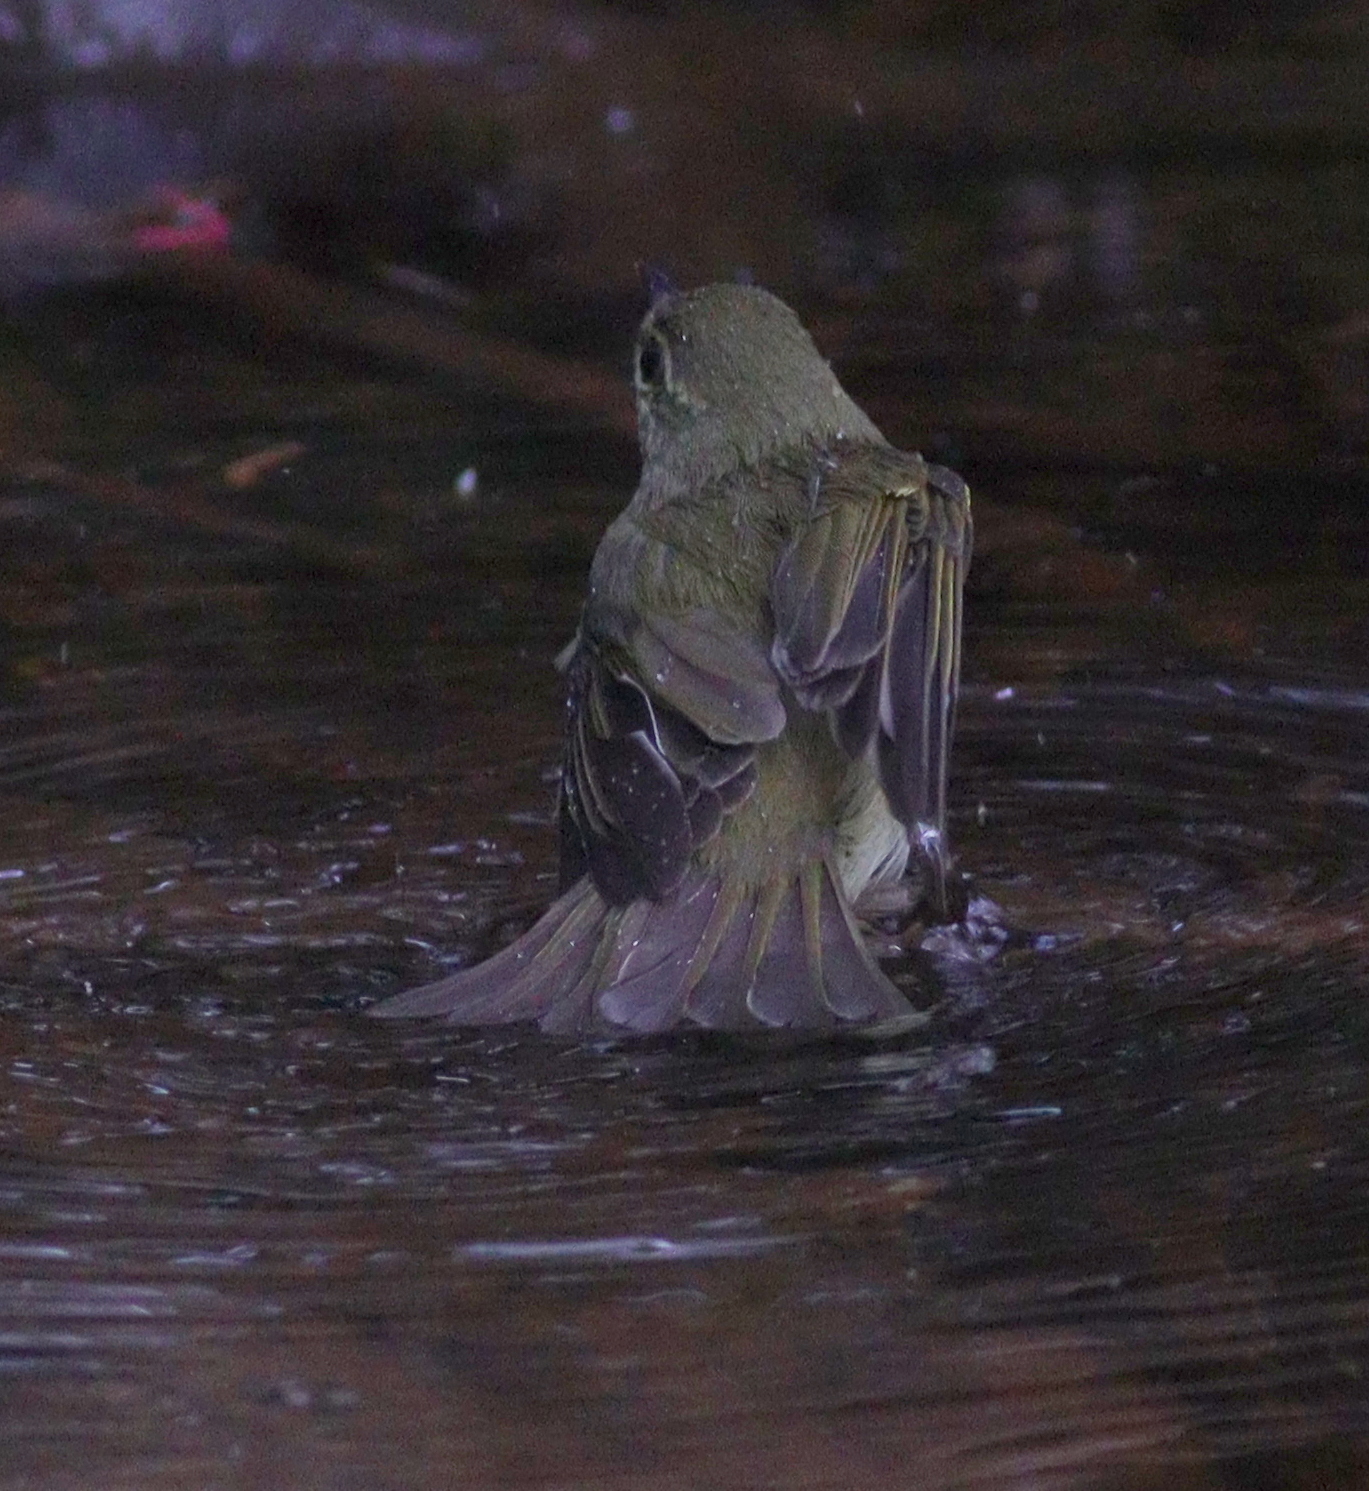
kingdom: Animalia
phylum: Chordata
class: Aves
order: Passeriformes
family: Phylloscopidae
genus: Phylloscopus
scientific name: Phylloscopus xanthodryas
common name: Japanese leaf warbler
